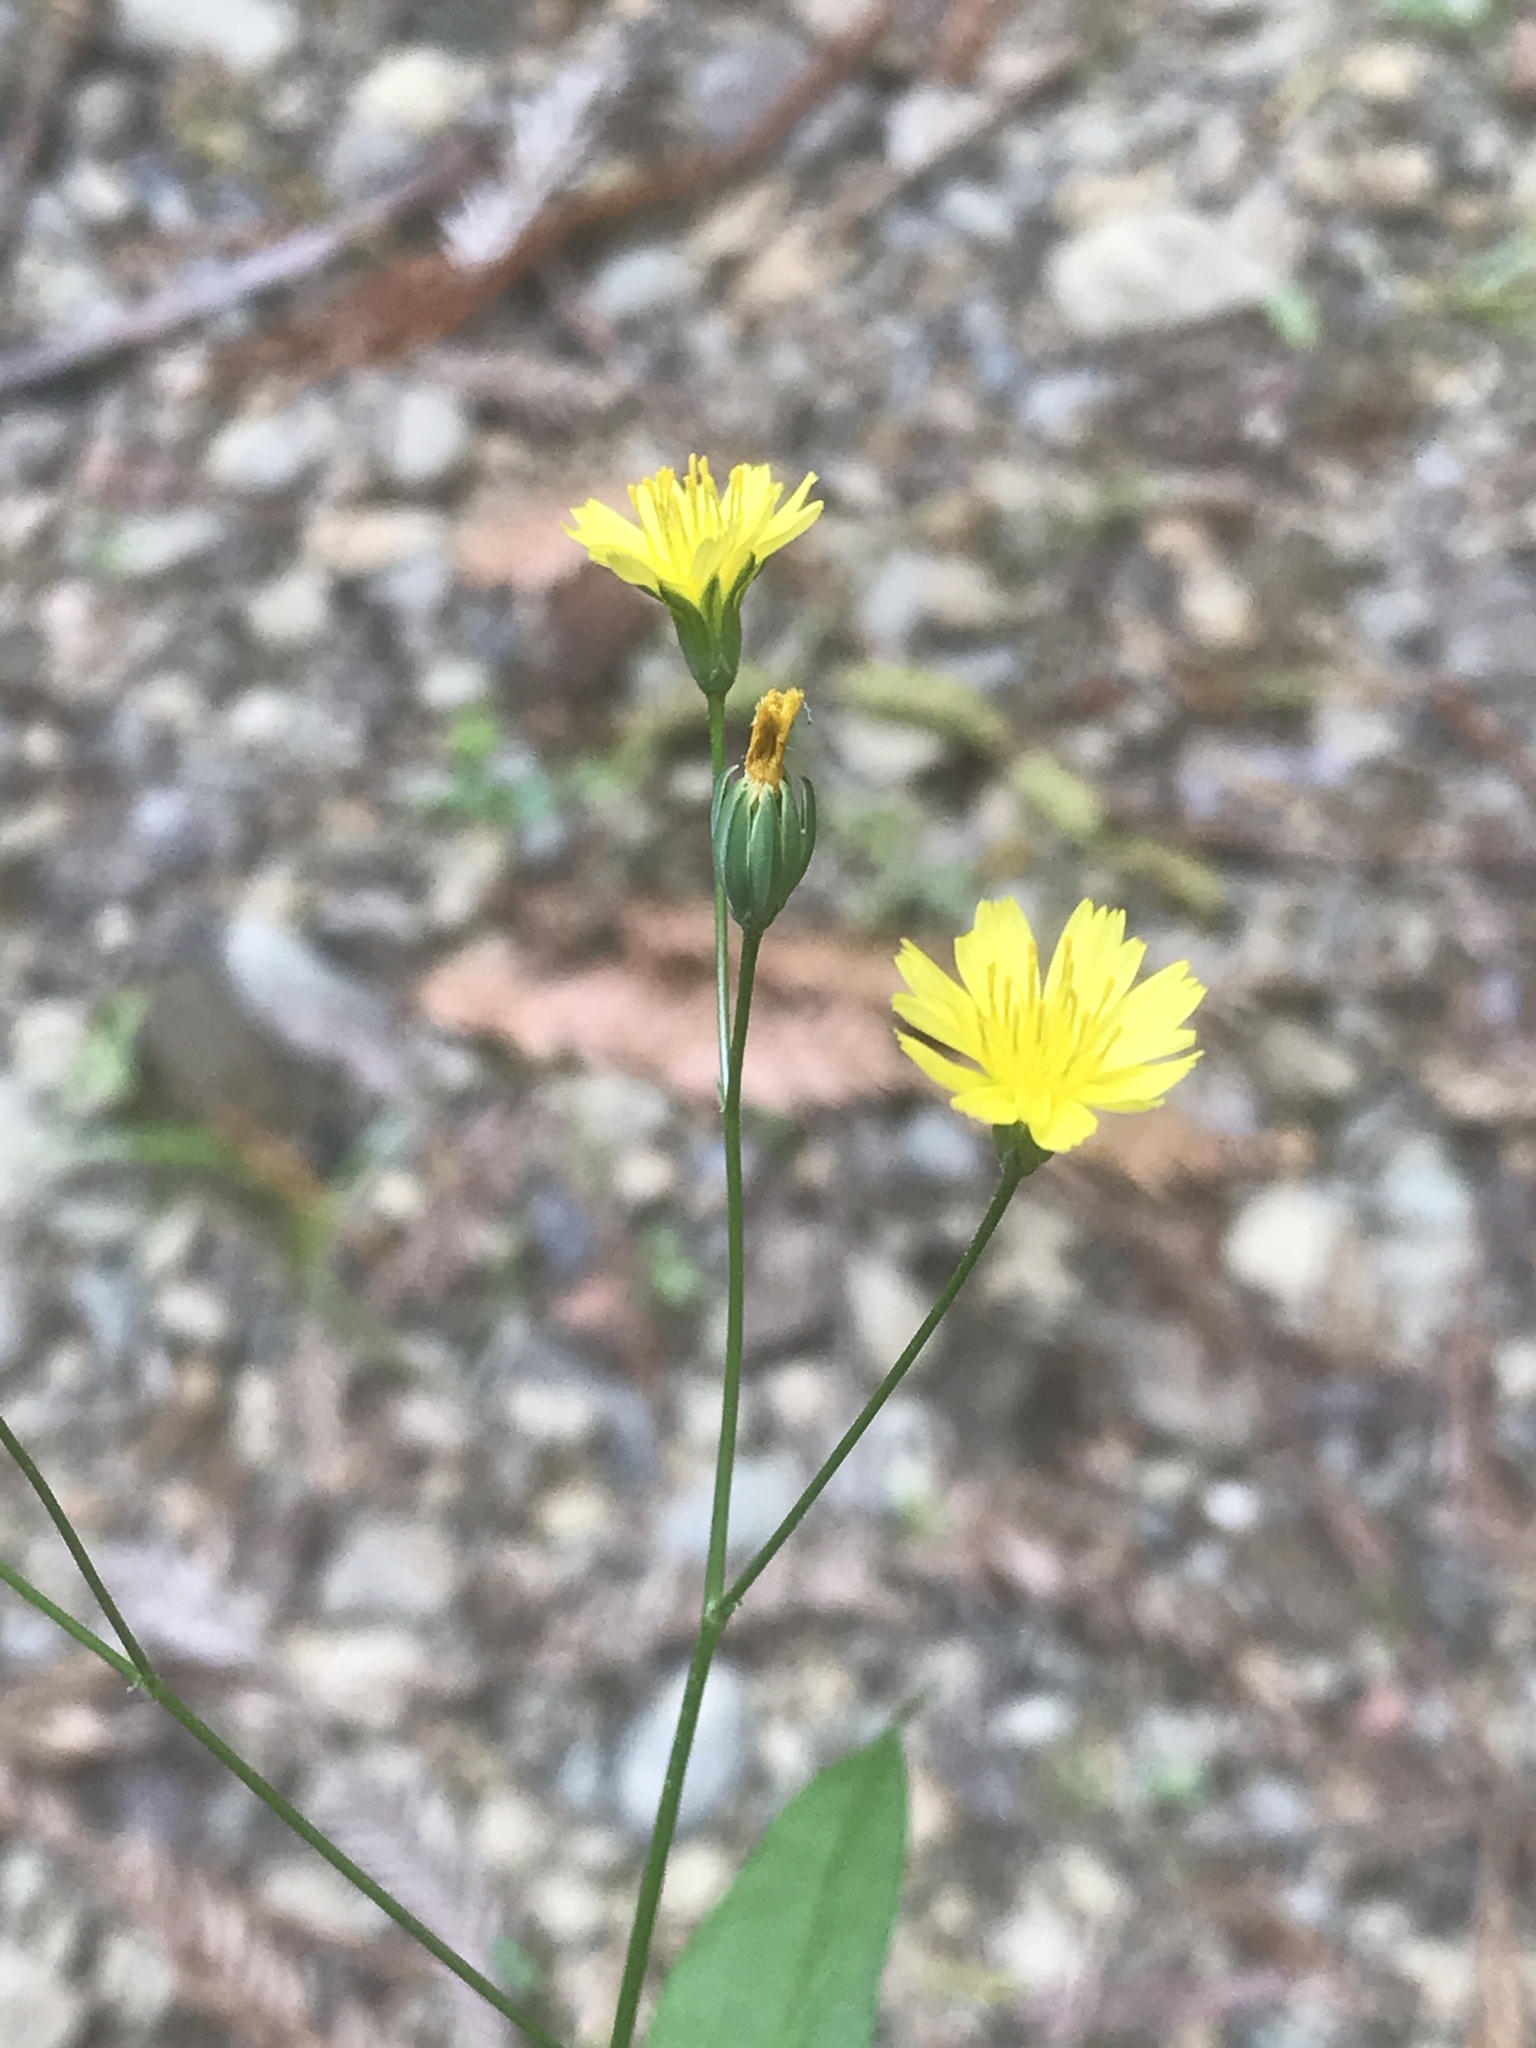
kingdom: Plantae
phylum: Tracheophyta
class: Magnoliopsida
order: Asterales
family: Asteraceae
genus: Lapsana
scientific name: Lapsana communis
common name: Nipplewort
